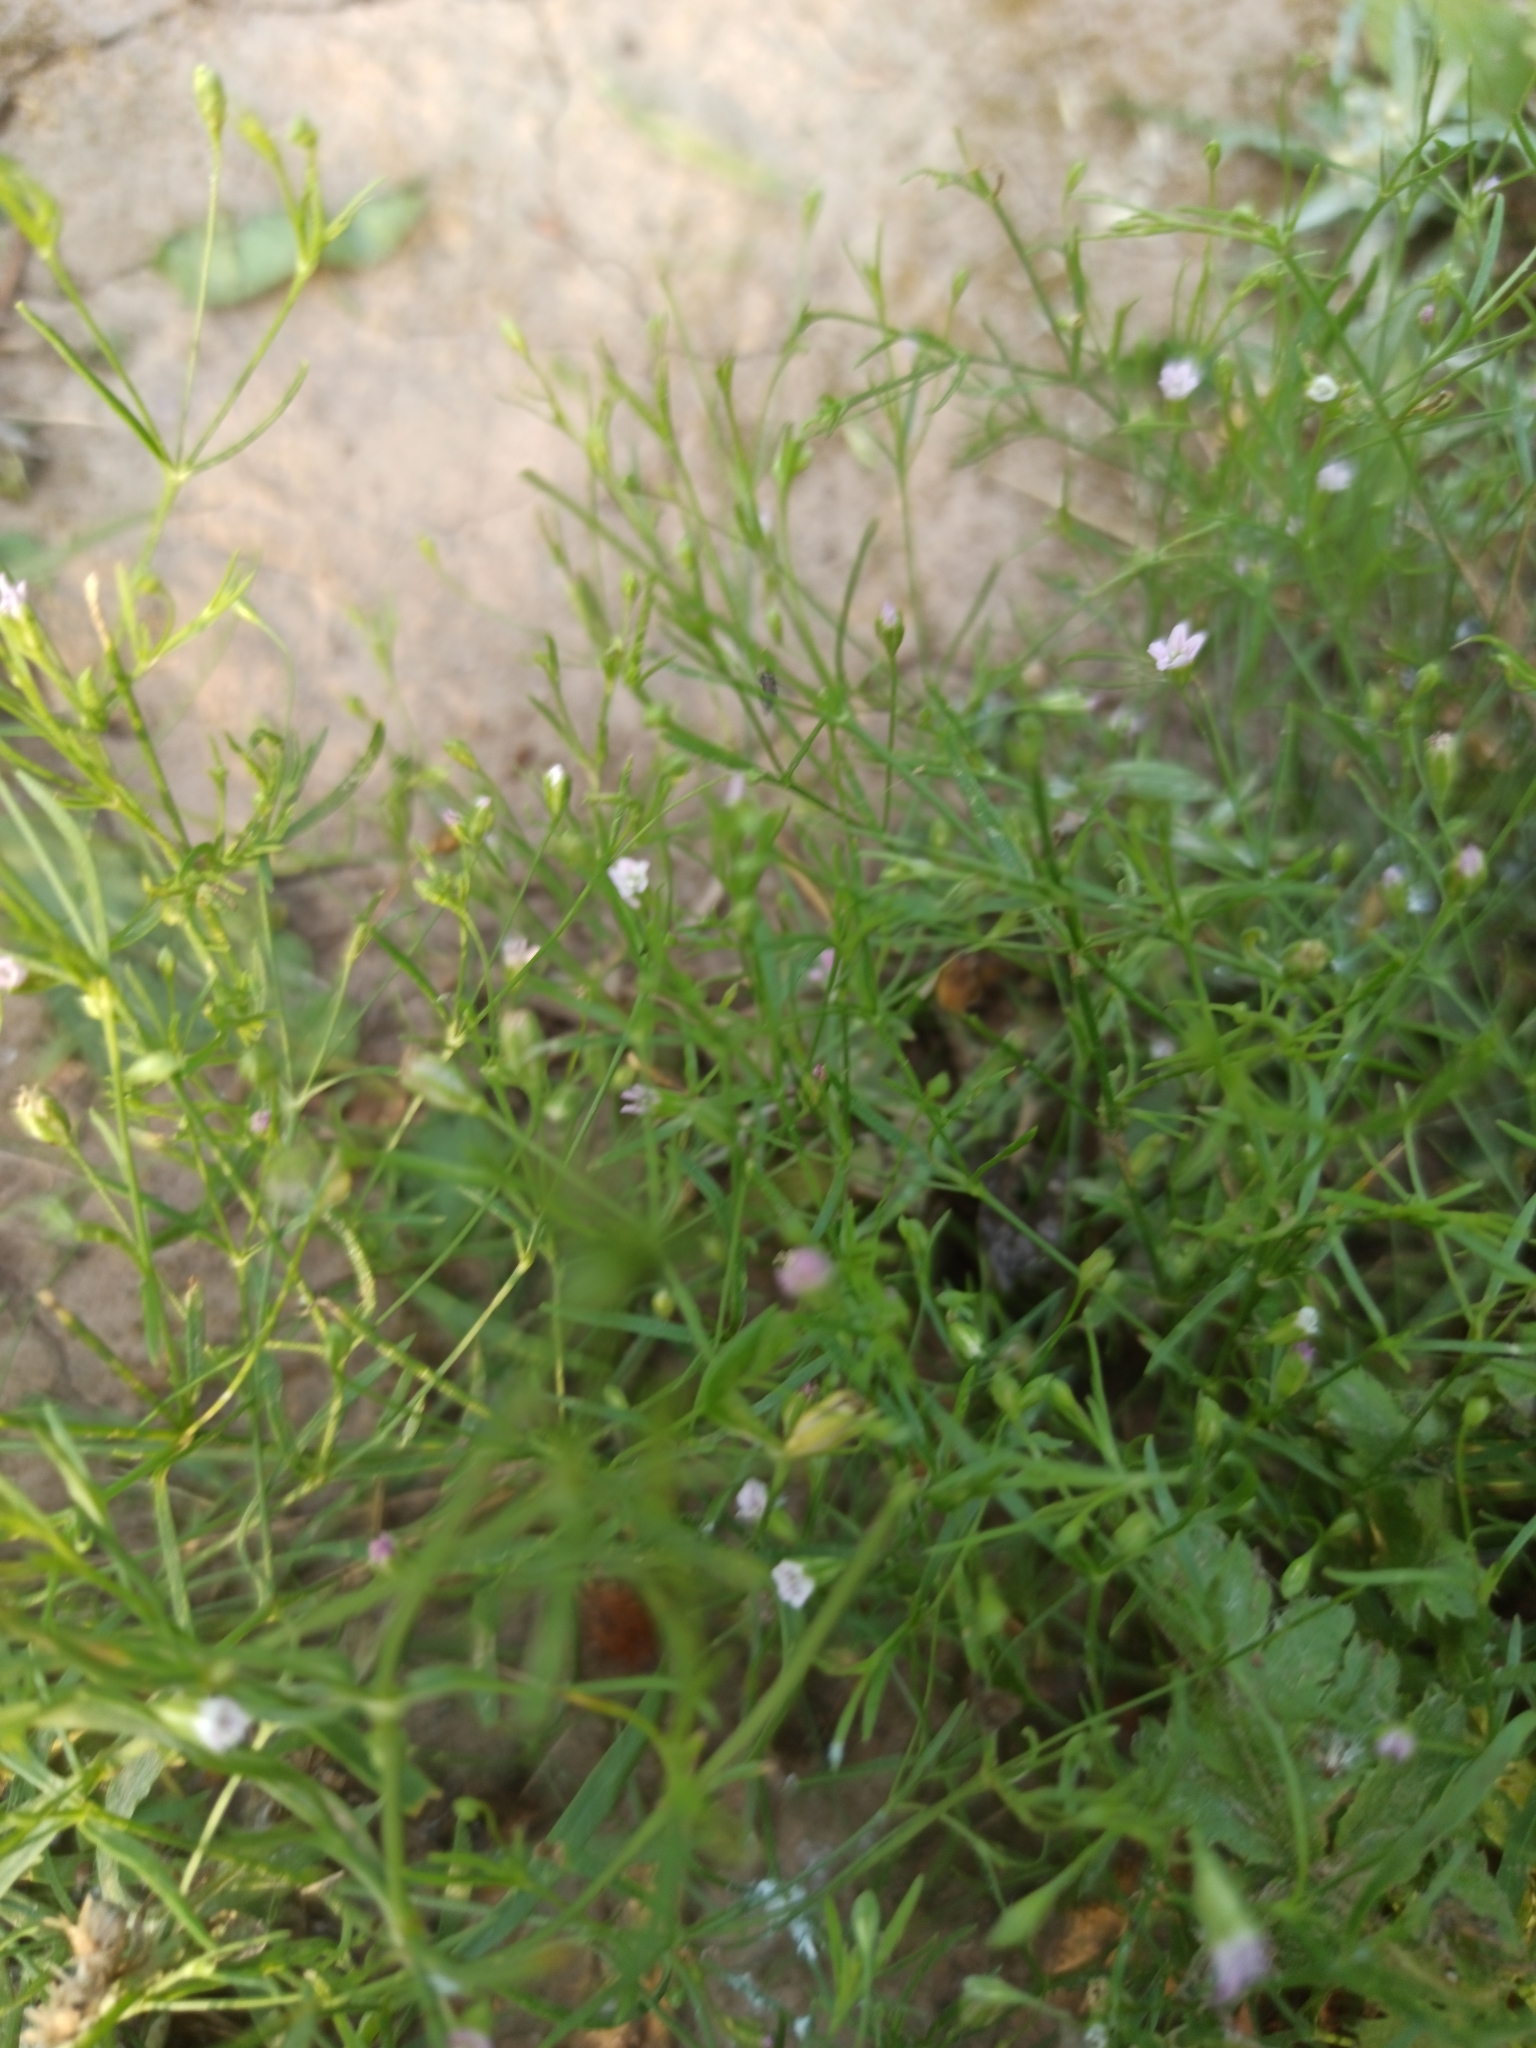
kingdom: Plantae
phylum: Tracheophyta
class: Magnoliopsida
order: Caryophyllales
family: Caryophyllaceae
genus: Psammophiliella
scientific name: Psammophiliella muralis
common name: Cushion baby's-breath
